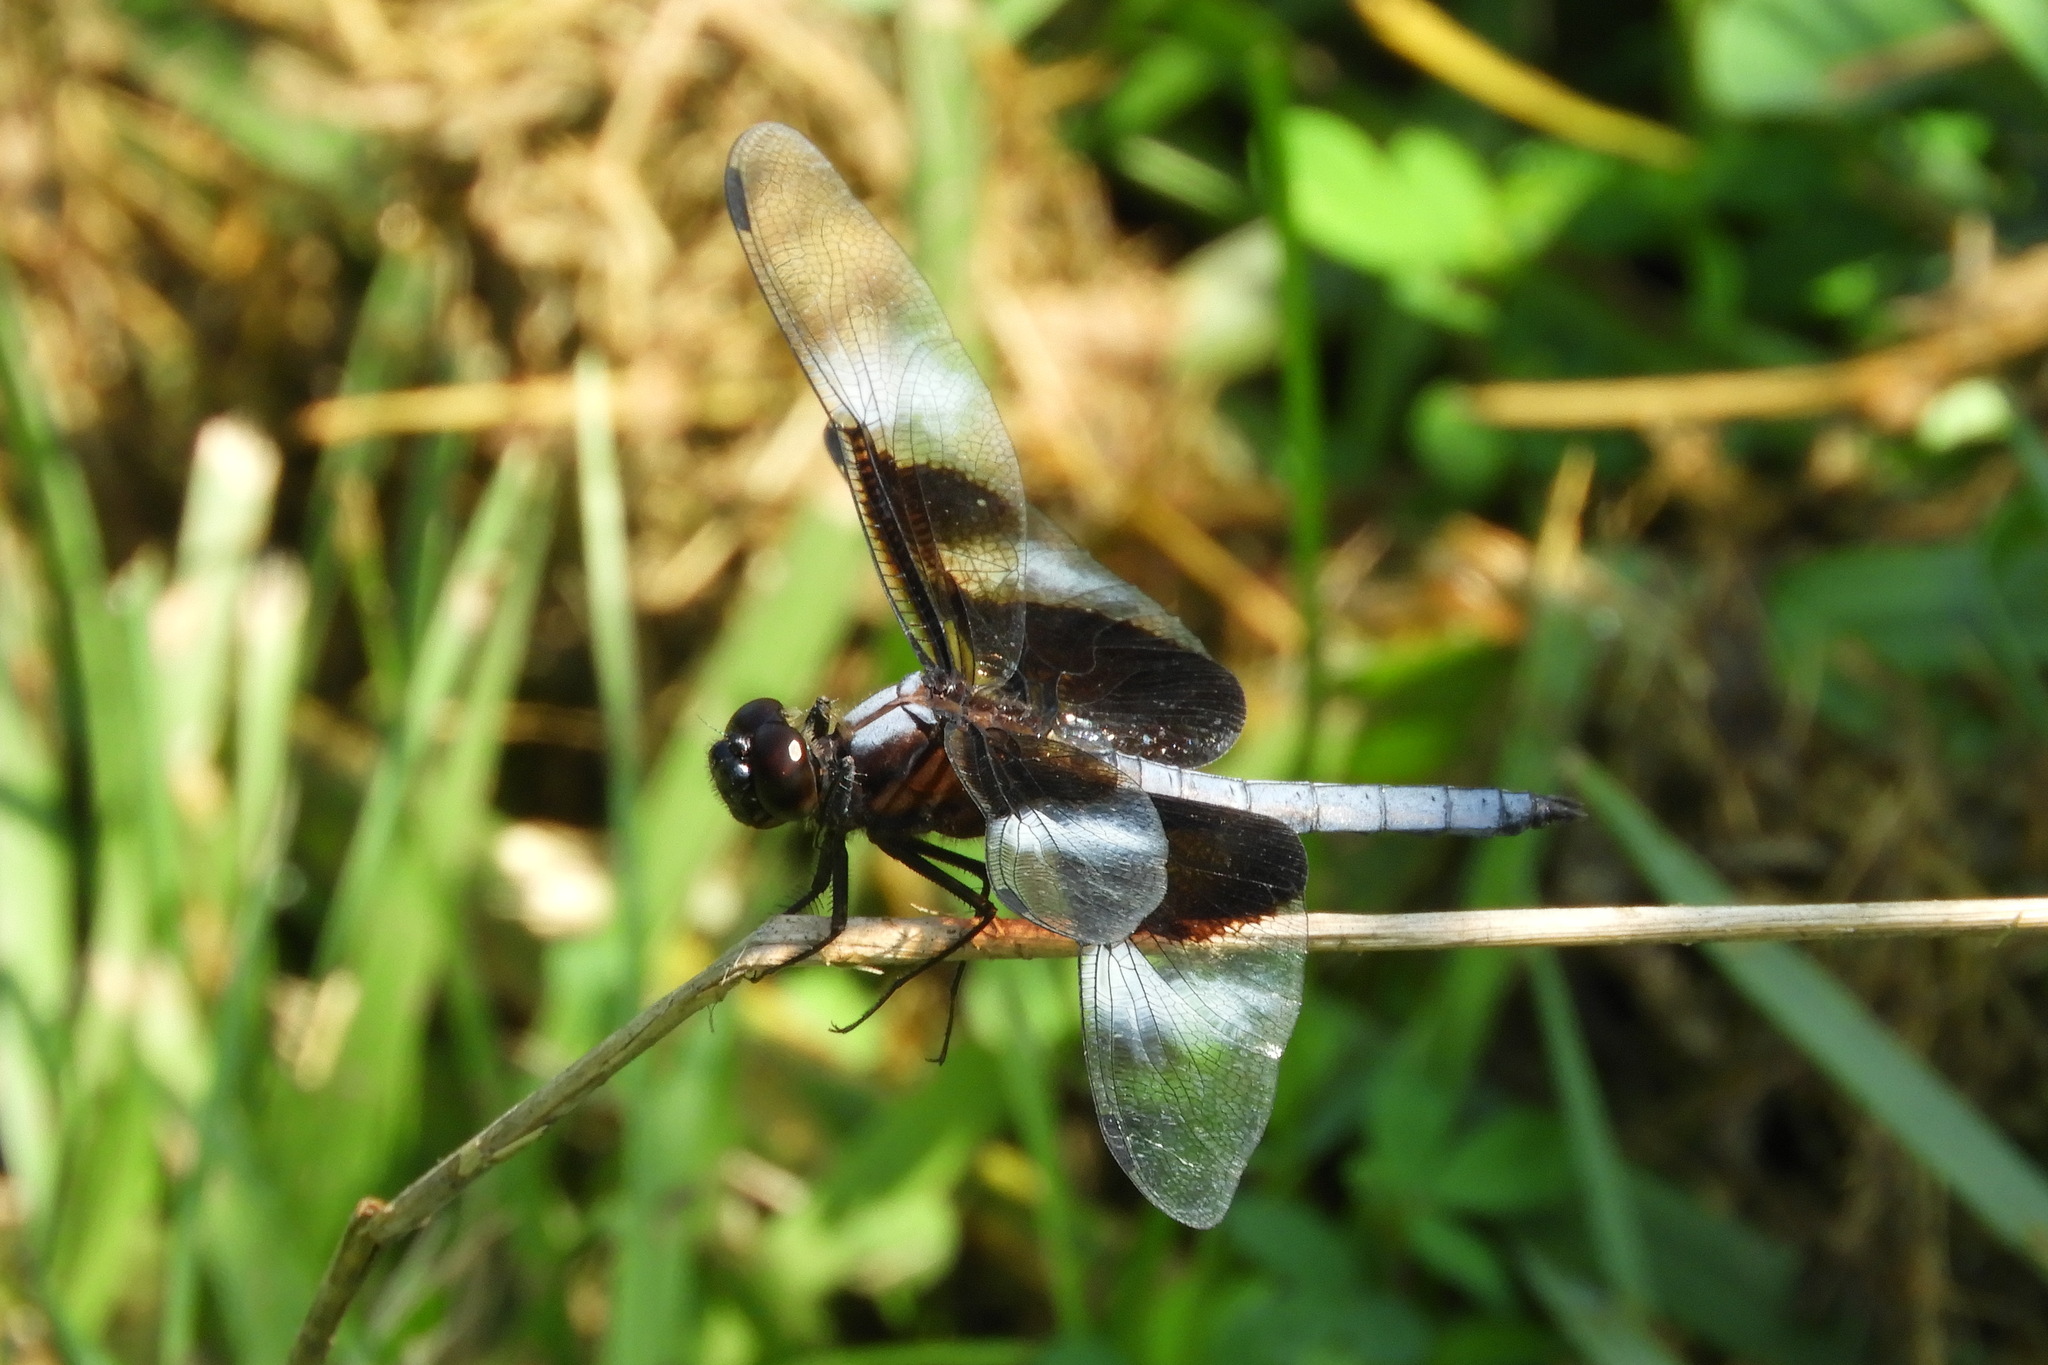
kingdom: Animalia
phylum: Arthropoda
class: Insecta
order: Odonata
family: Libellulidae
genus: Libellula
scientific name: Libellula luctuosa
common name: Widow skimmer
